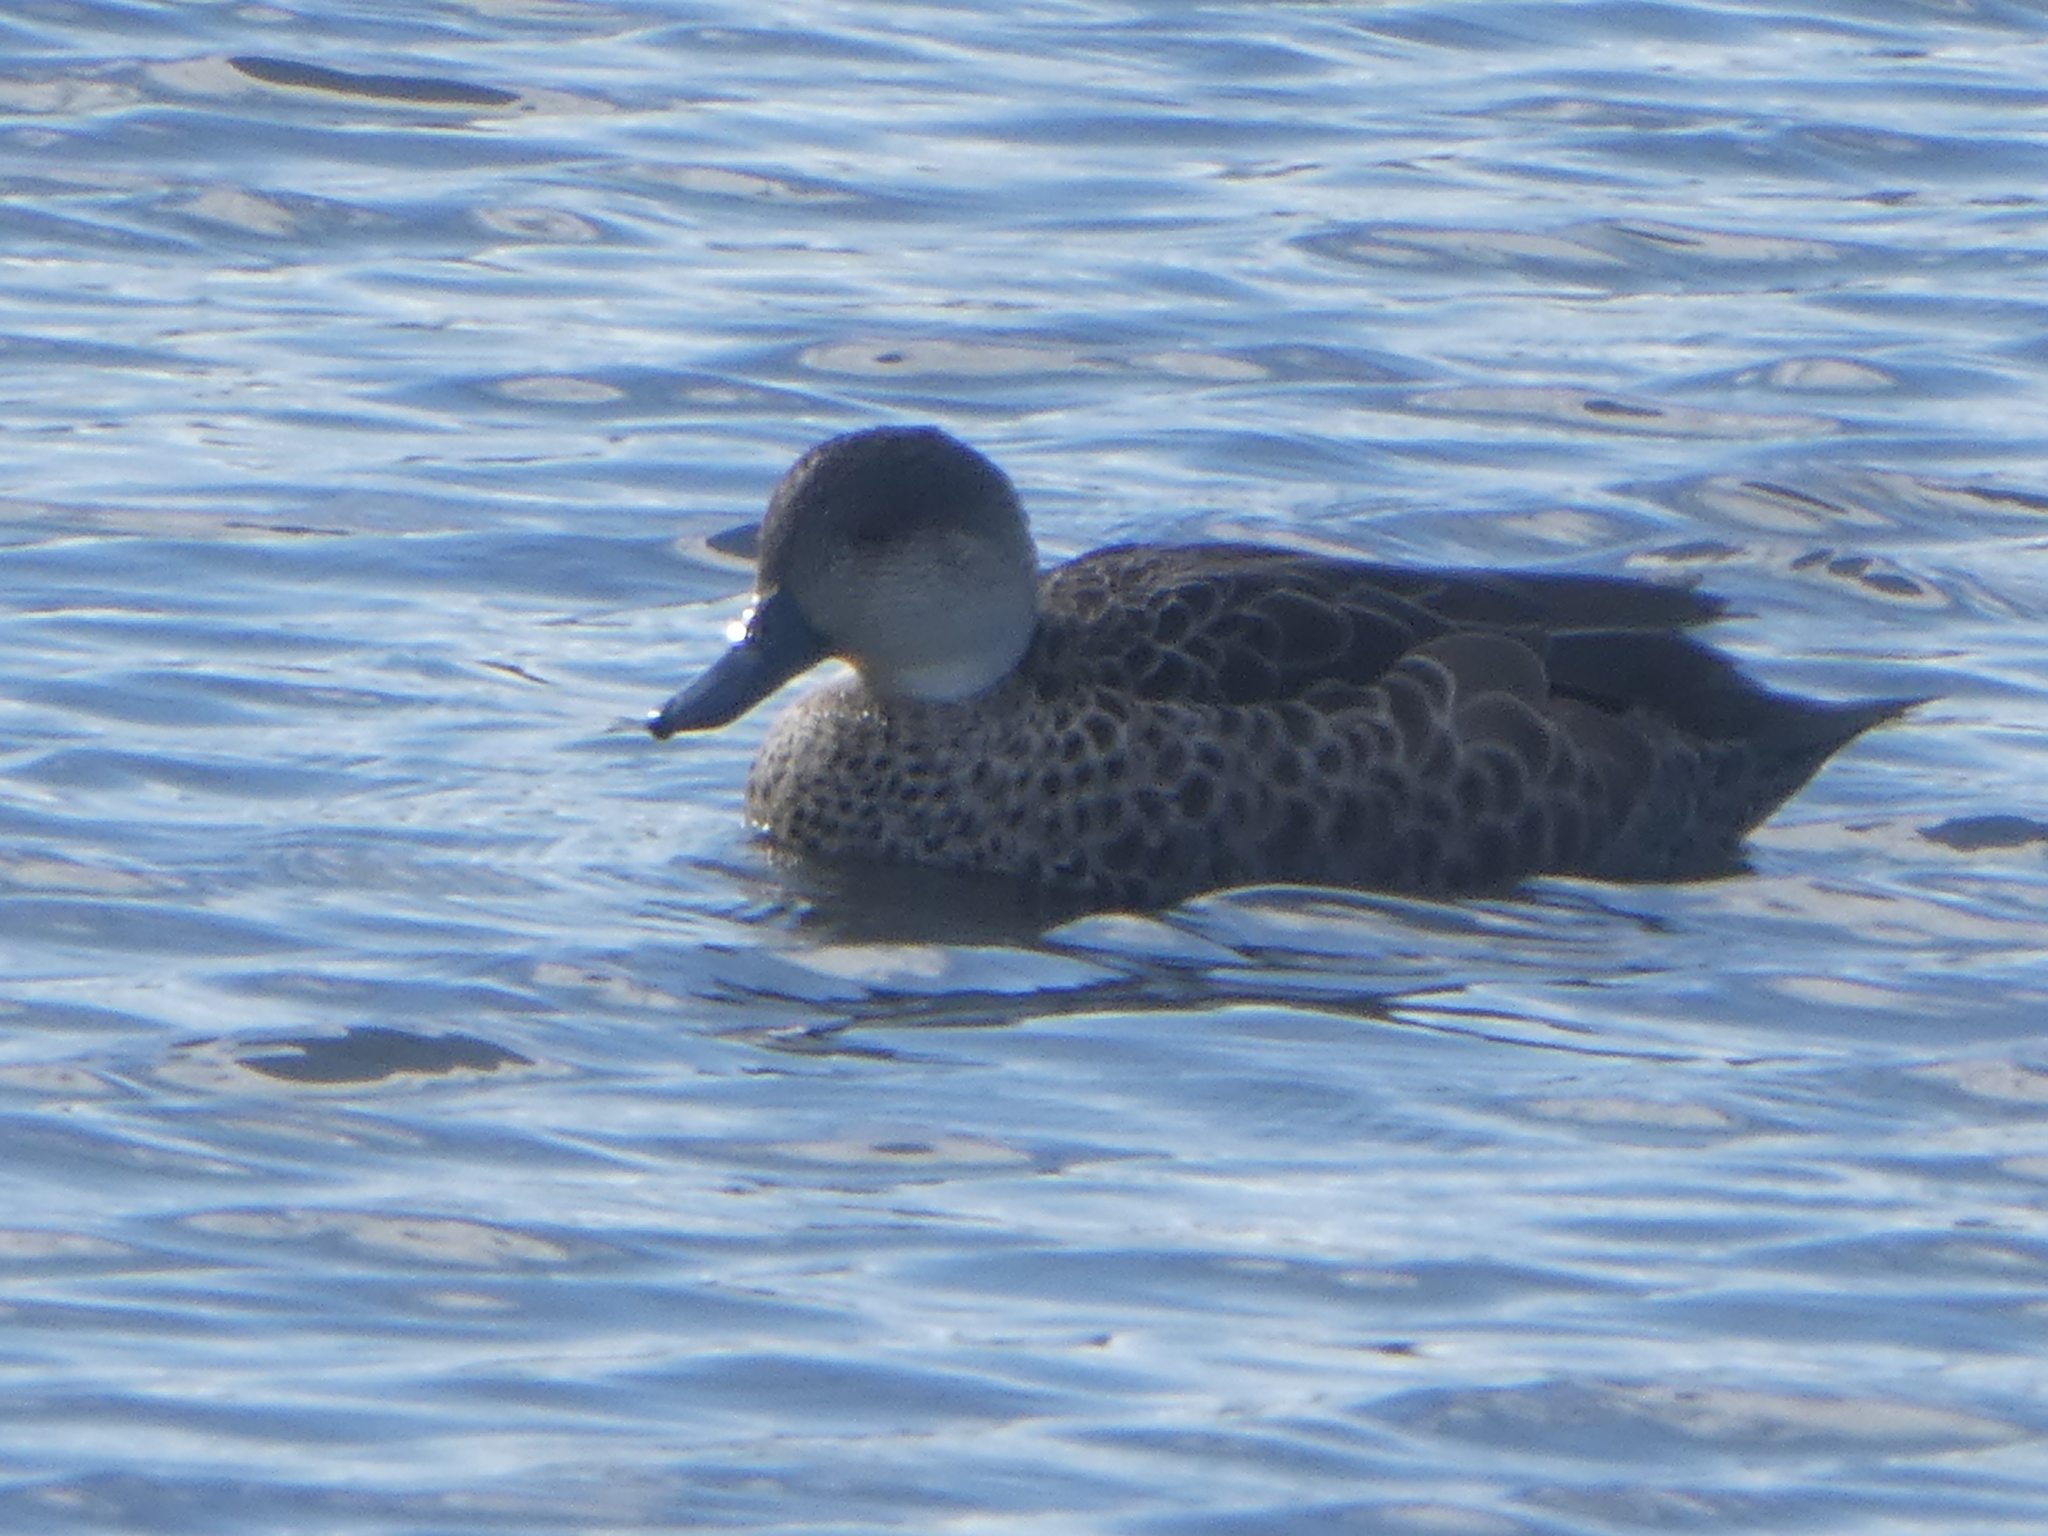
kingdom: Animalia
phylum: Chordata
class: Aves
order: Anseriformes
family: Anatidae
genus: Anas
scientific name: Anas gracilis
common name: Grey teal
